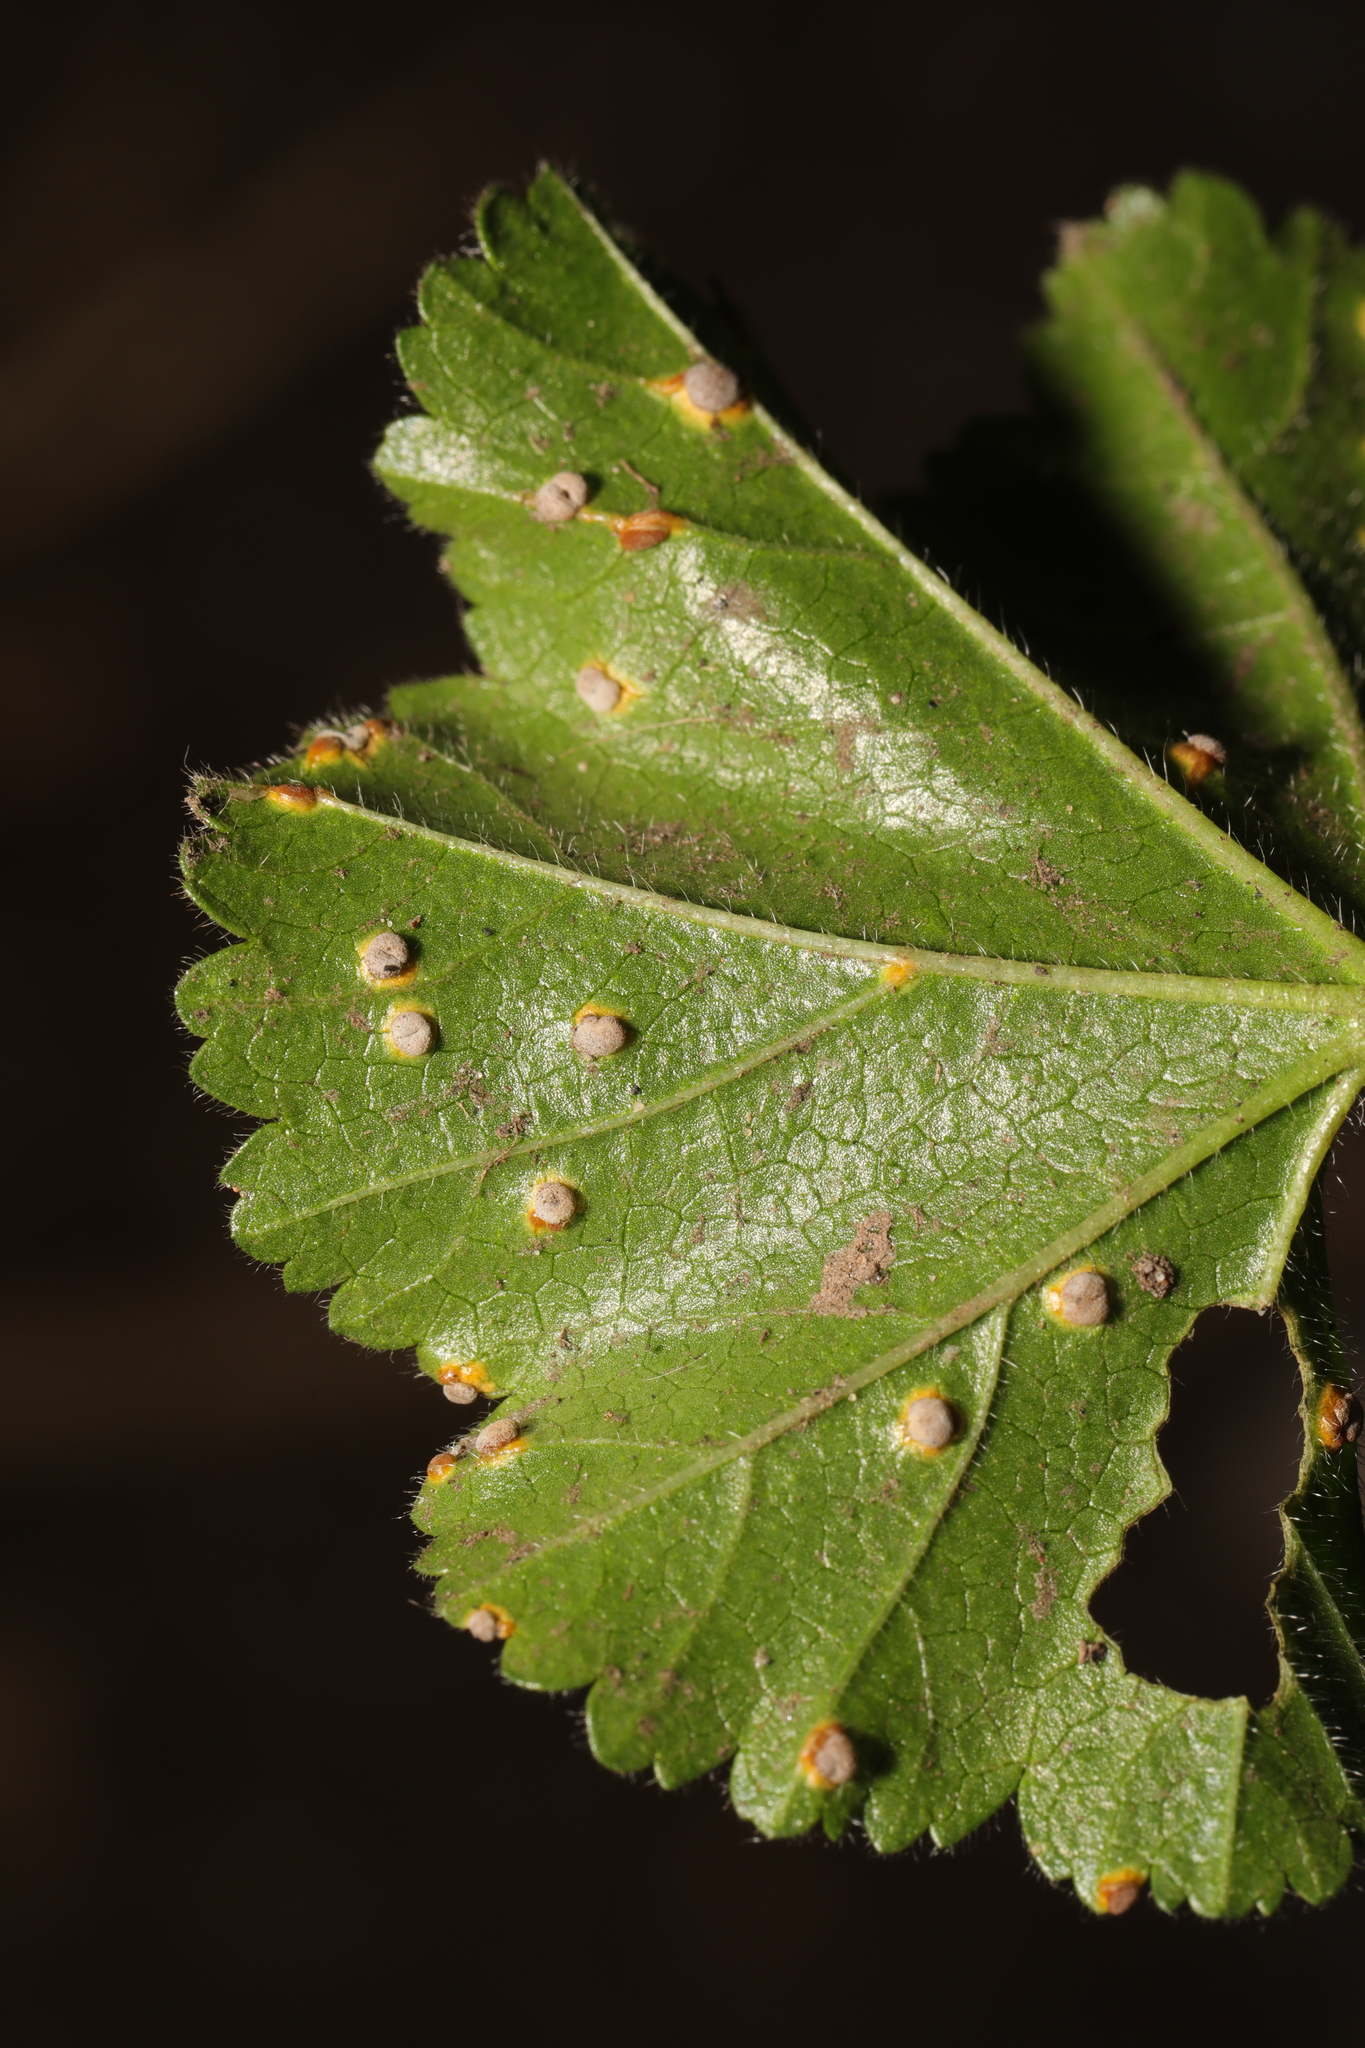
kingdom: Fungi
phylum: Basidiomycota
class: Pucciniomycetes
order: Pucciniales
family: Pucciniaceae
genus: Puccinia
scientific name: Puccinia malvacearum
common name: Hollyhock rust
